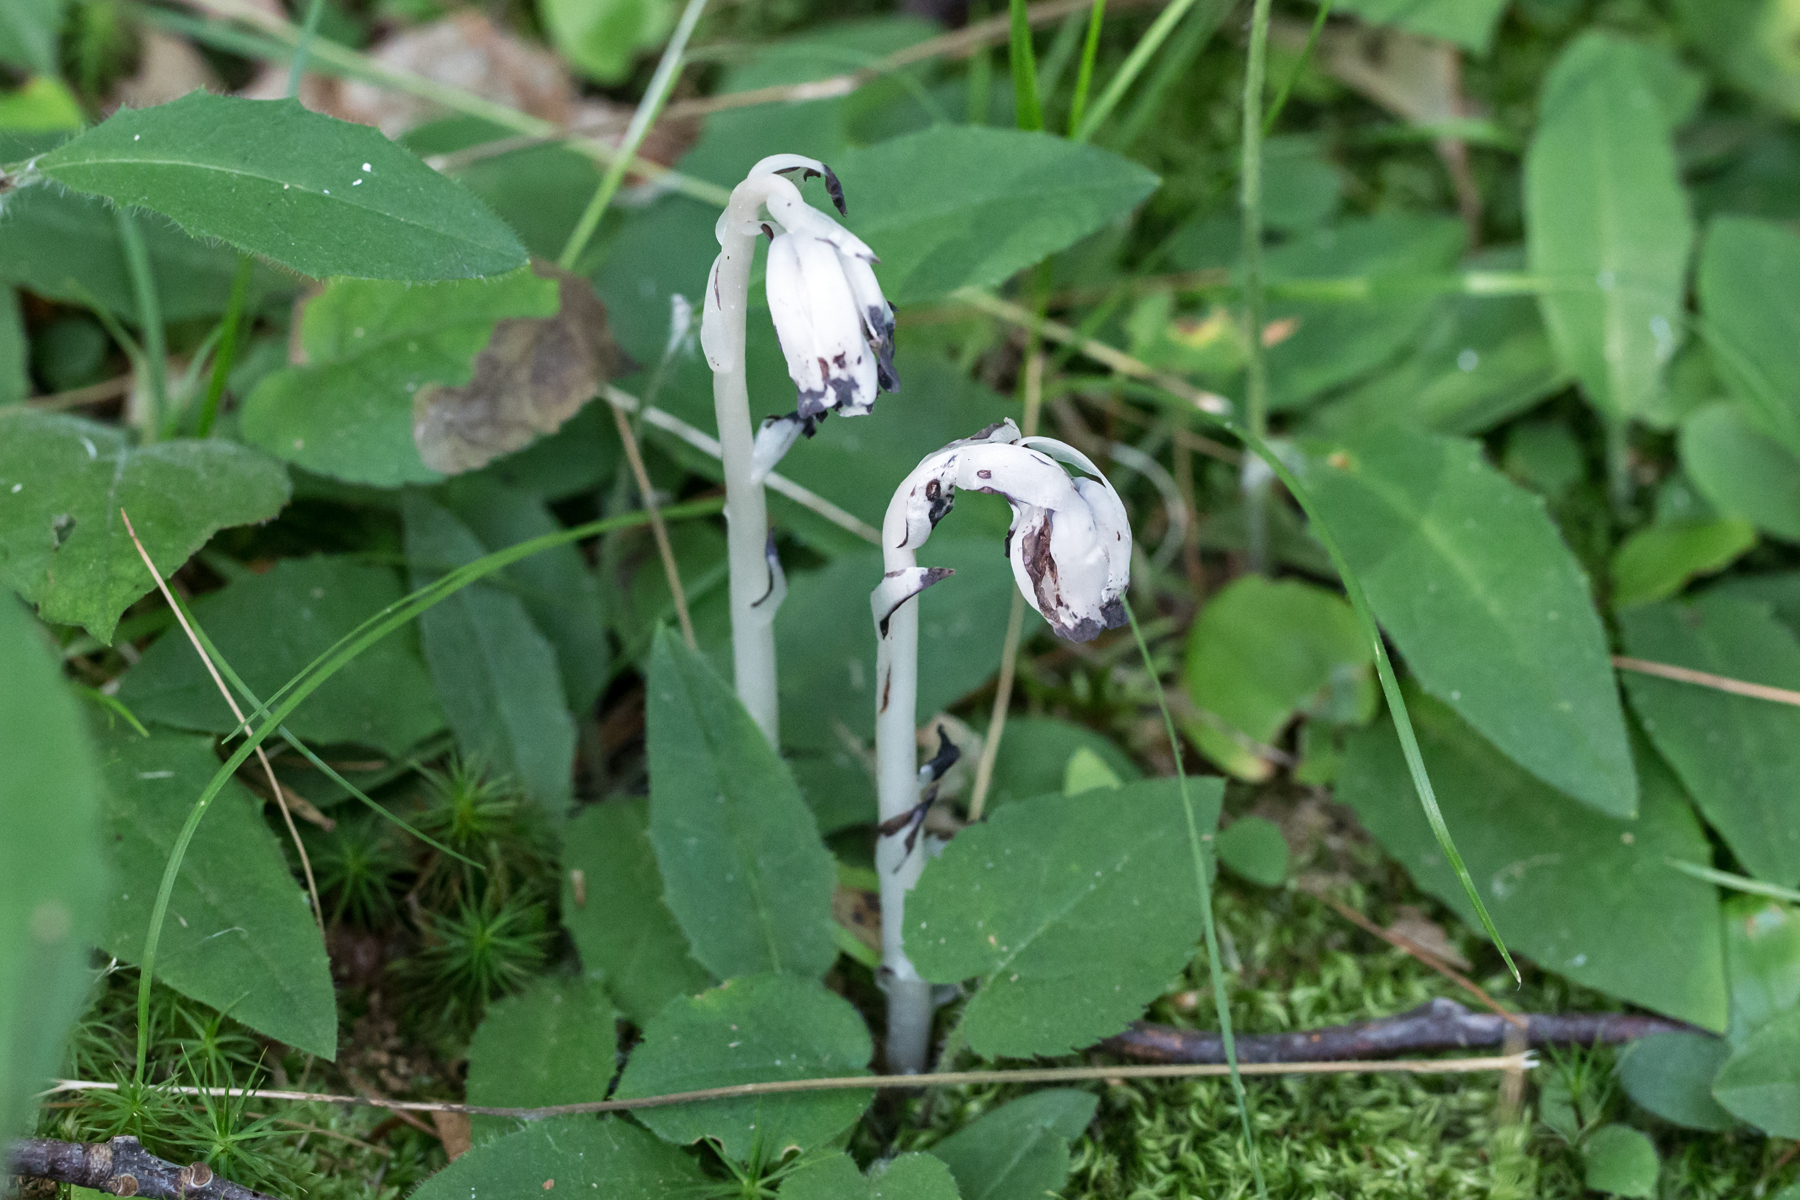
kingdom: Plantae
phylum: Tracheophyta
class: Magnoliopsida
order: Ericales
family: Ericaceae
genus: Monotropa
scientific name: Monotropa uniflora
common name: Convulsion root
